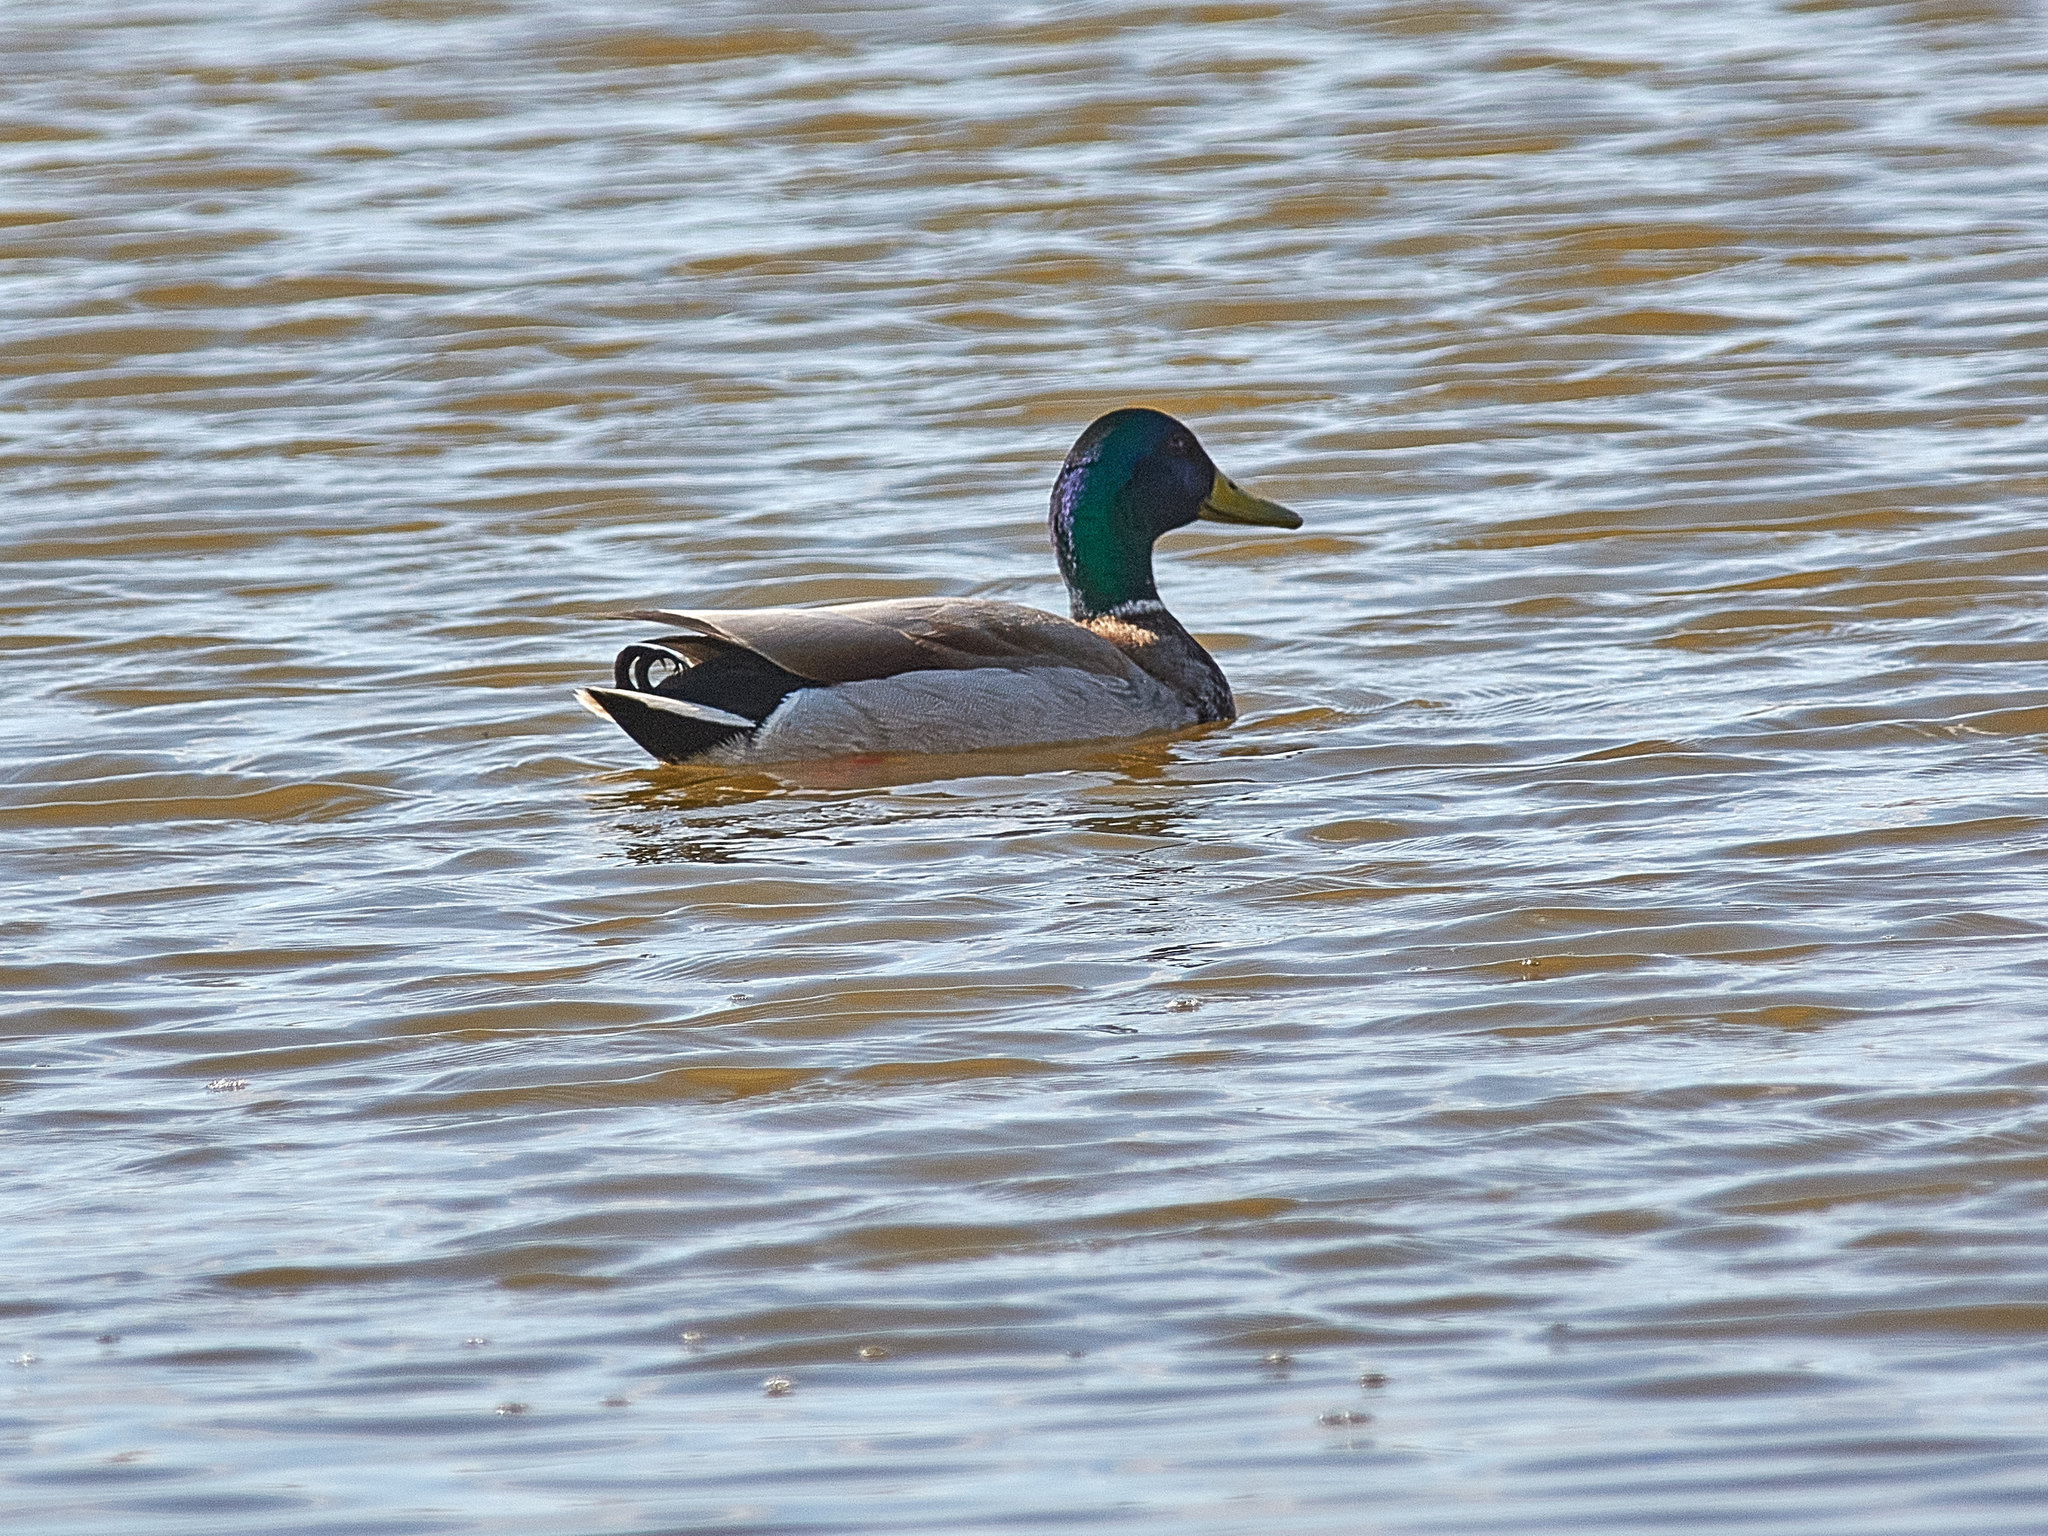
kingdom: Animalia
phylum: Chordata
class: Aves
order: Anseriformes
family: Anatidae
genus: Anas
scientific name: Anas platyrhynchos
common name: Mallard
